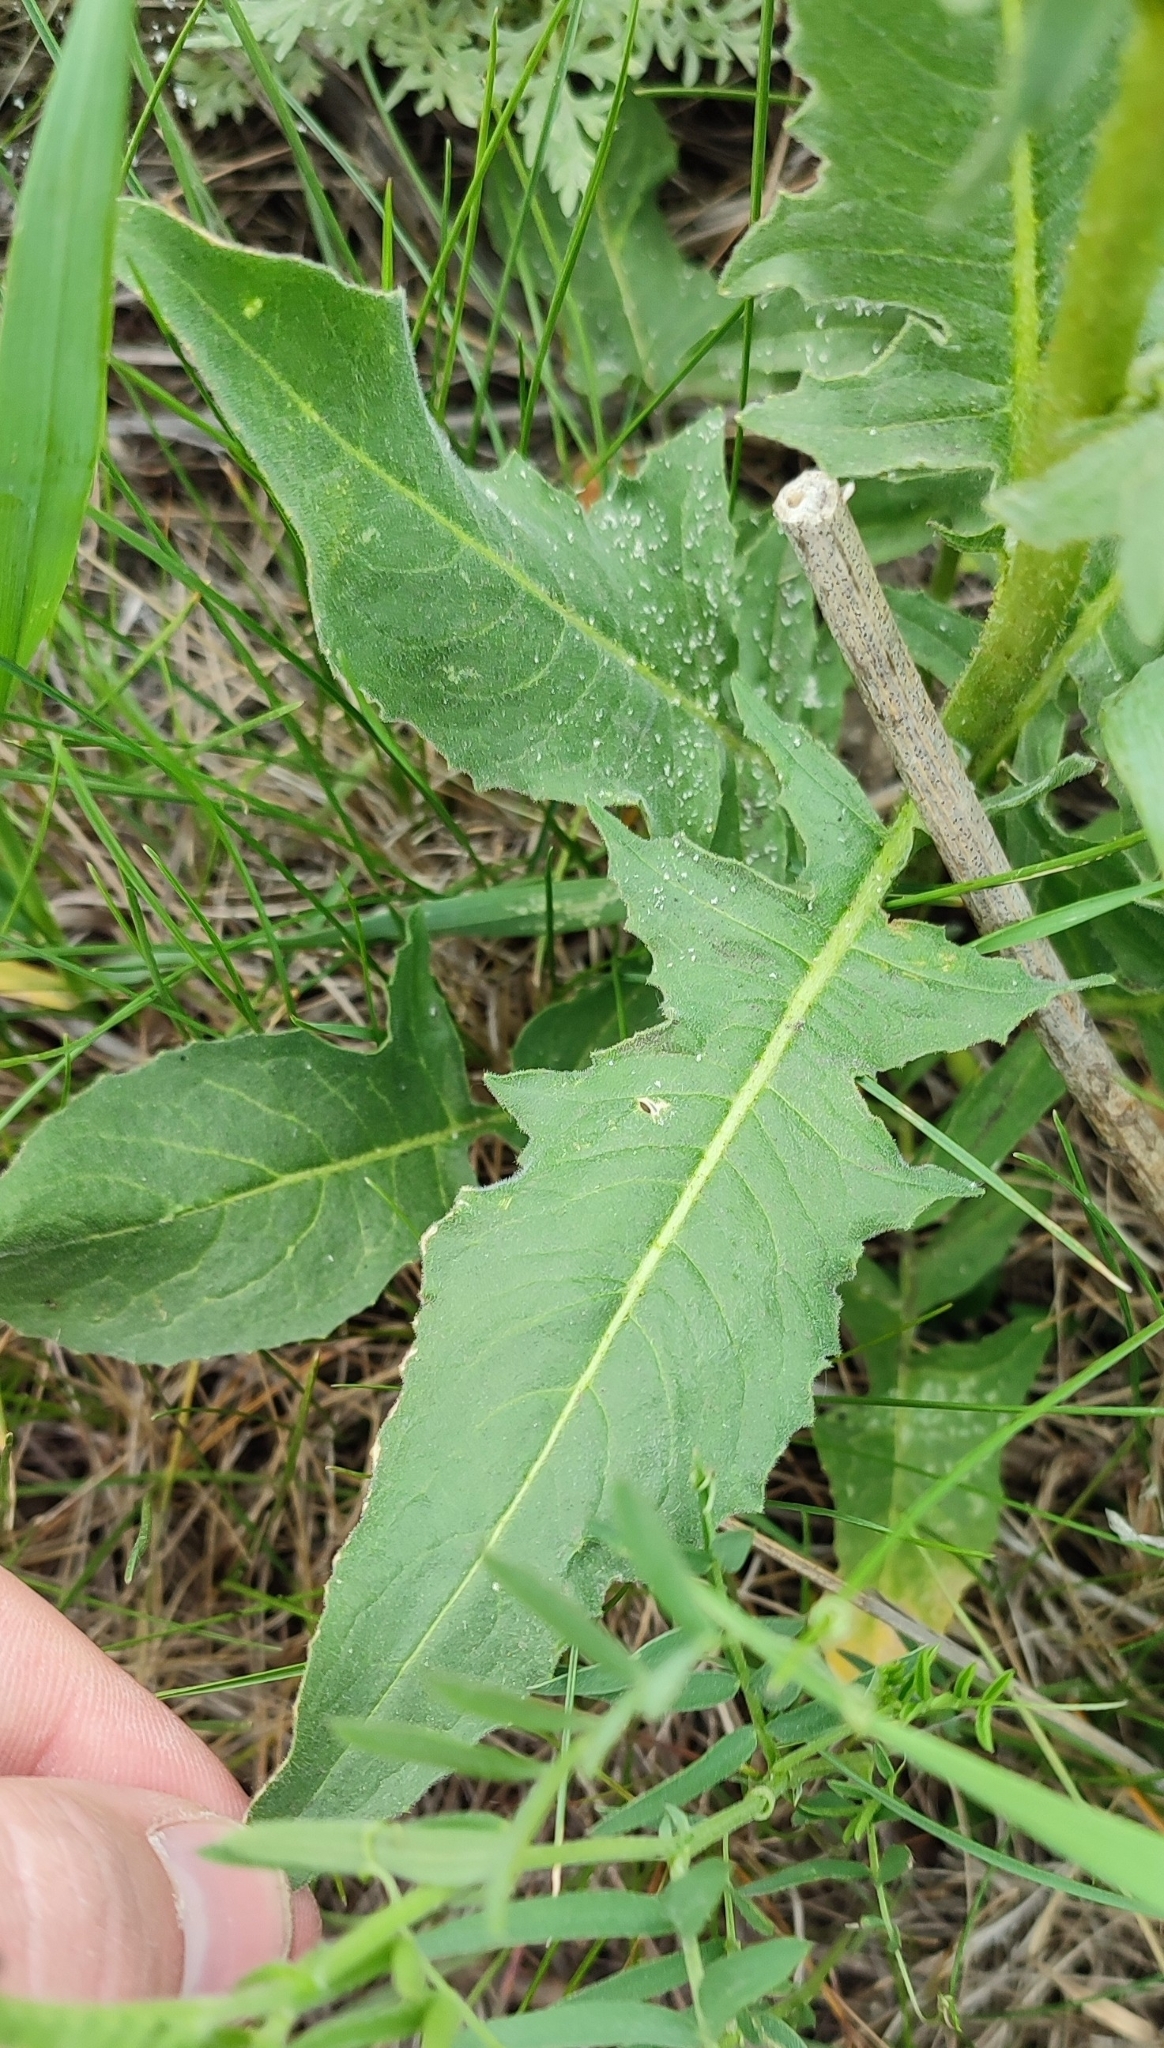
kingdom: Plantae
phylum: Tracheophyta
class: Magnoliopsida
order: Brassicales
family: Brassicaceae
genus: Bunias
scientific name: Bunias orientalis
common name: Warty-cabbage
